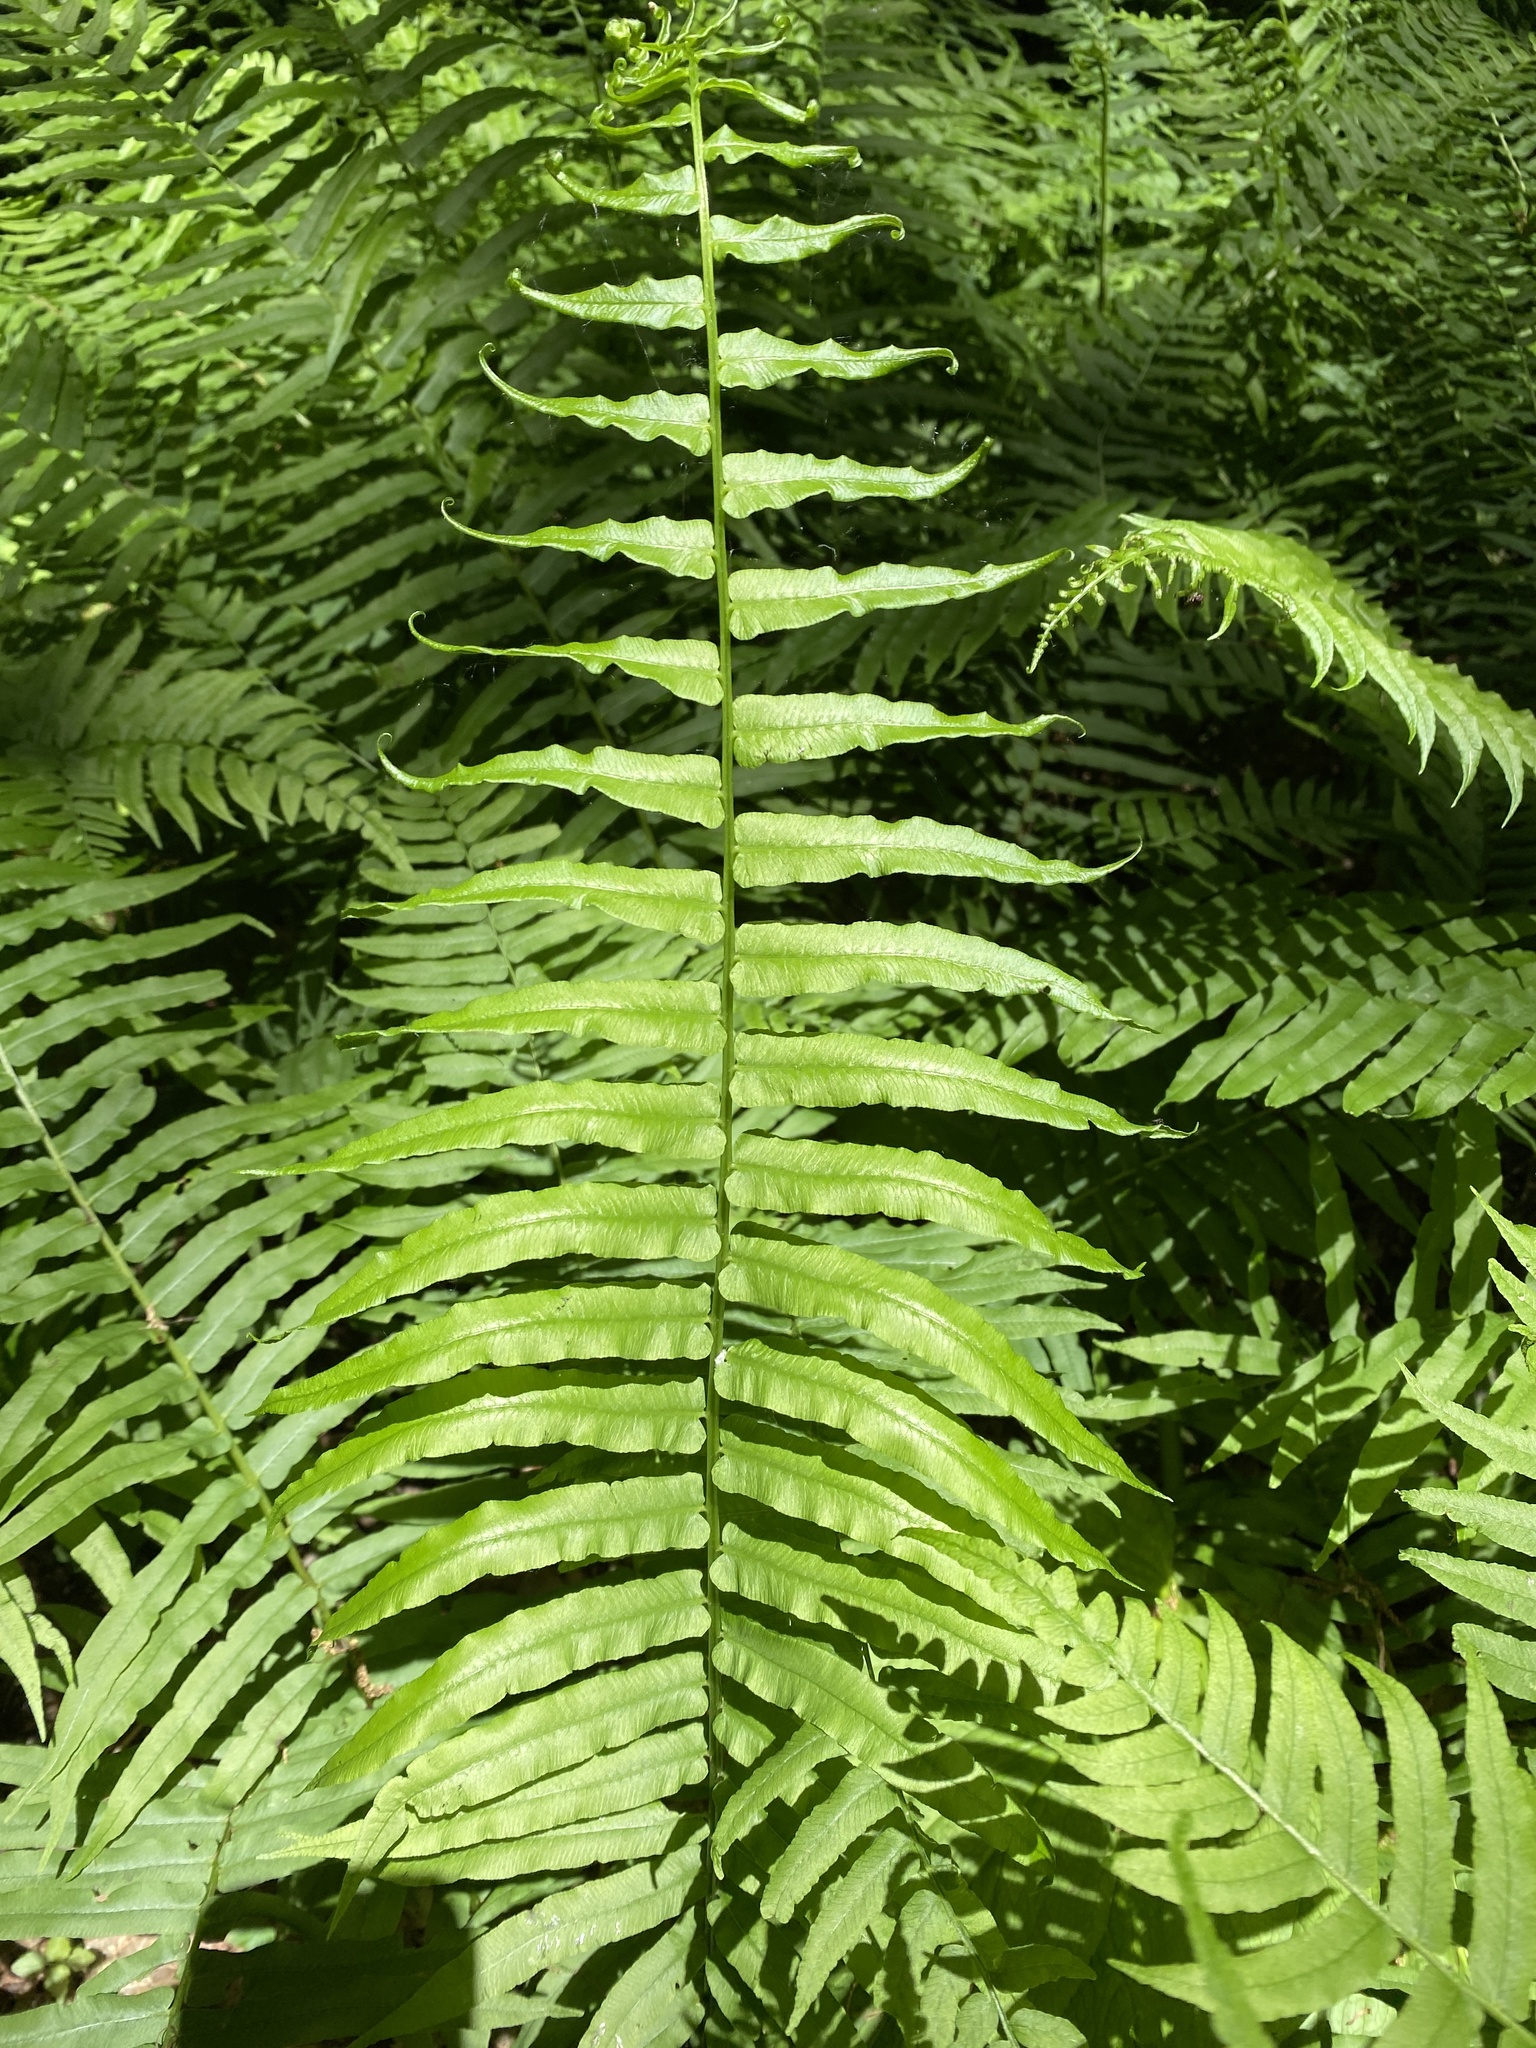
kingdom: Plantae
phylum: Tracheophyta
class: Polypodiopsida
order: Polypodiales
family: Diplaziopsidaceae
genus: Homalosorus
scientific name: Homalosorus pycnocarpos
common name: Glade fern
